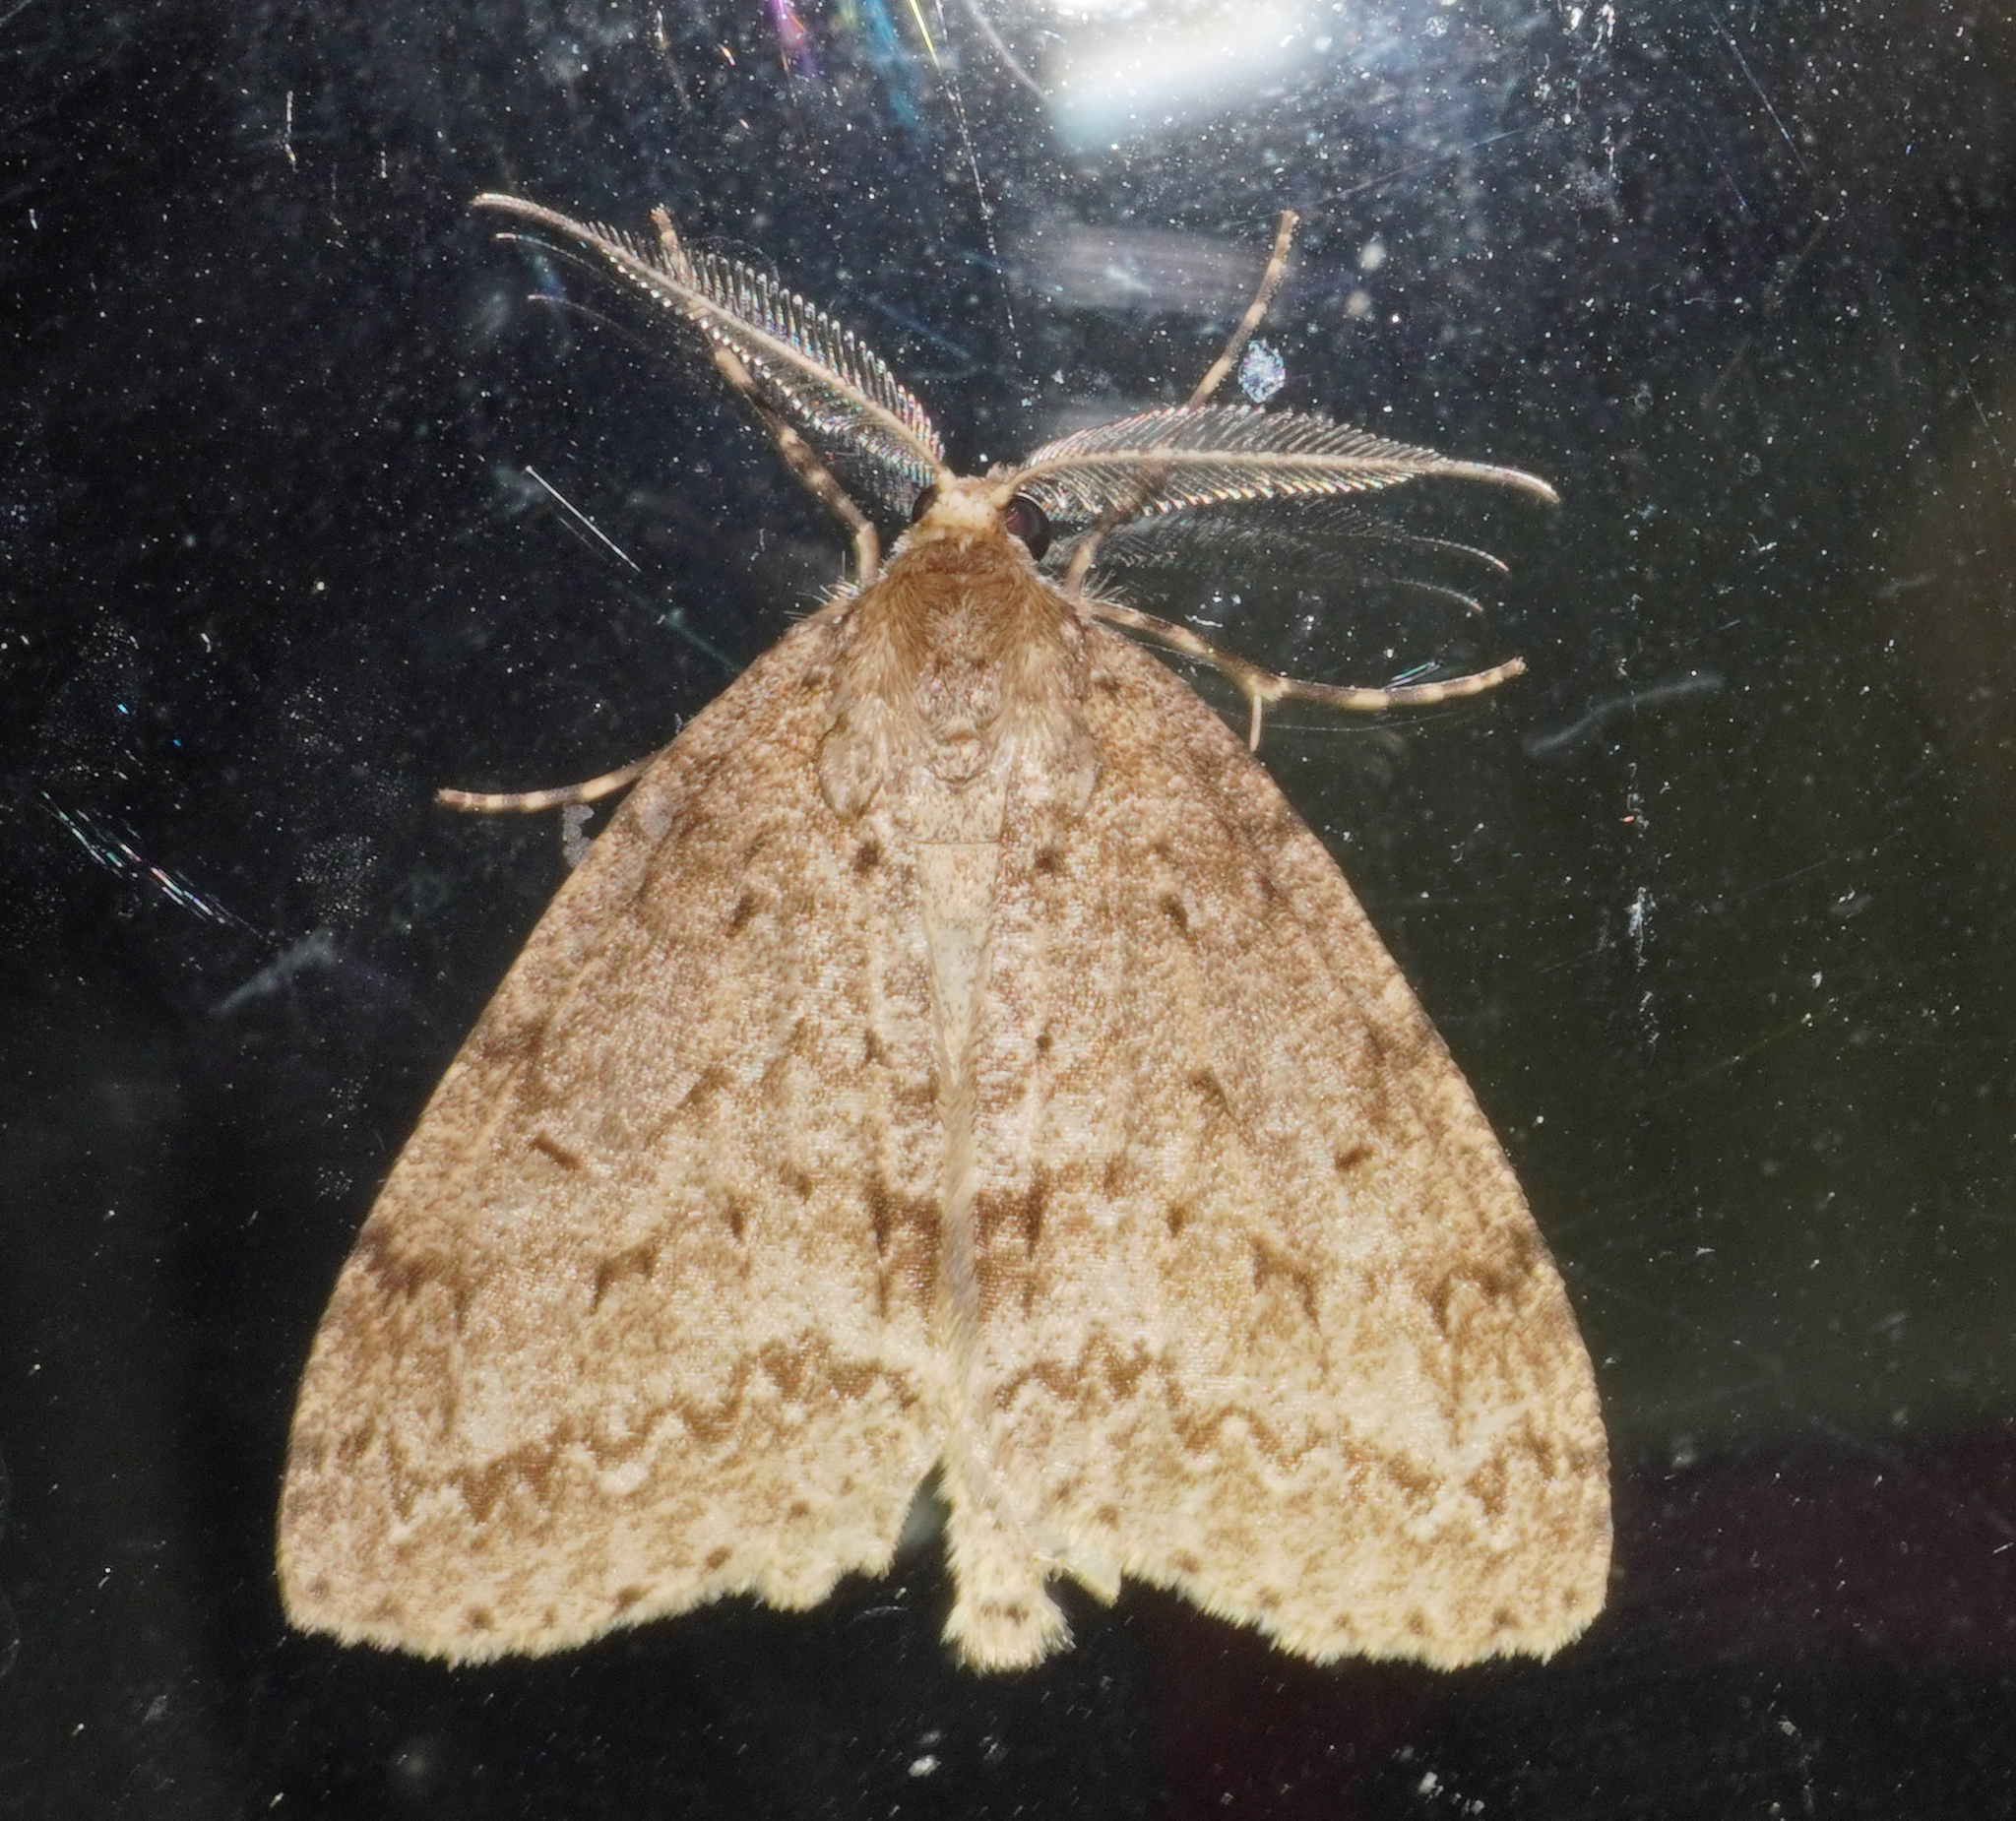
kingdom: Animalia
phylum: Arthropoda
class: Insecta
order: Lepidoptera
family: Geometridae
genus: Pseudocoremia
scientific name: Pseudocoremia fenerata
